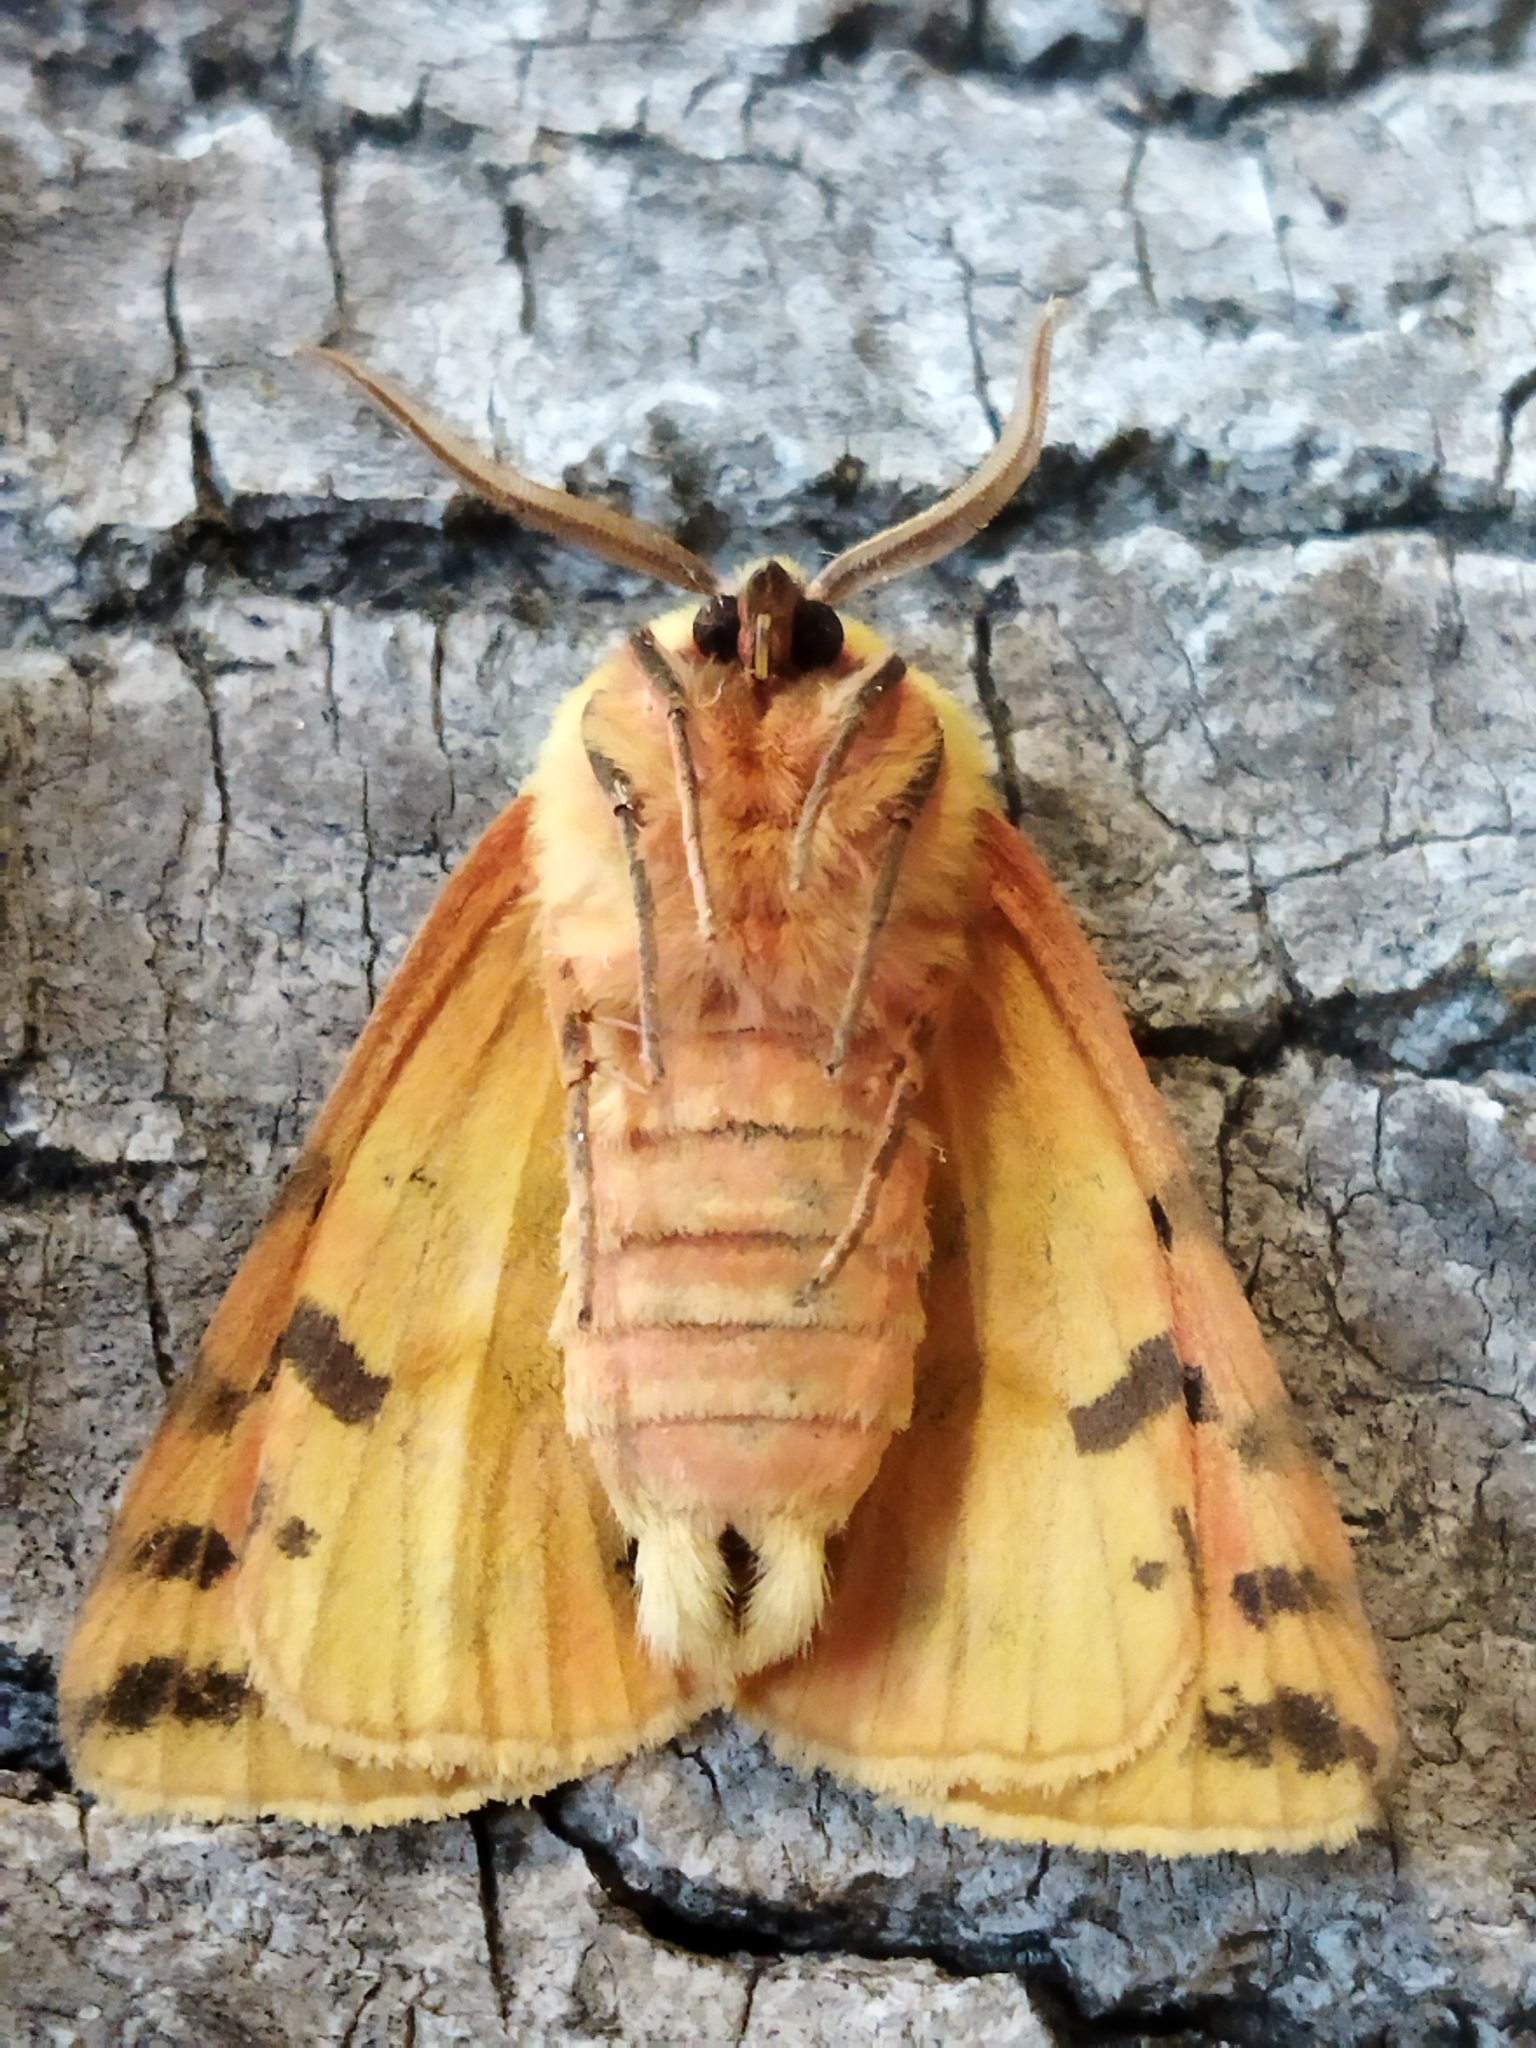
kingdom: Animalia
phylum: Arthropoda
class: Insecta
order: Lepidoptera
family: Erebidae
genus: Rhyparia
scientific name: Rhyparia purpurata
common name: Purple tiger
